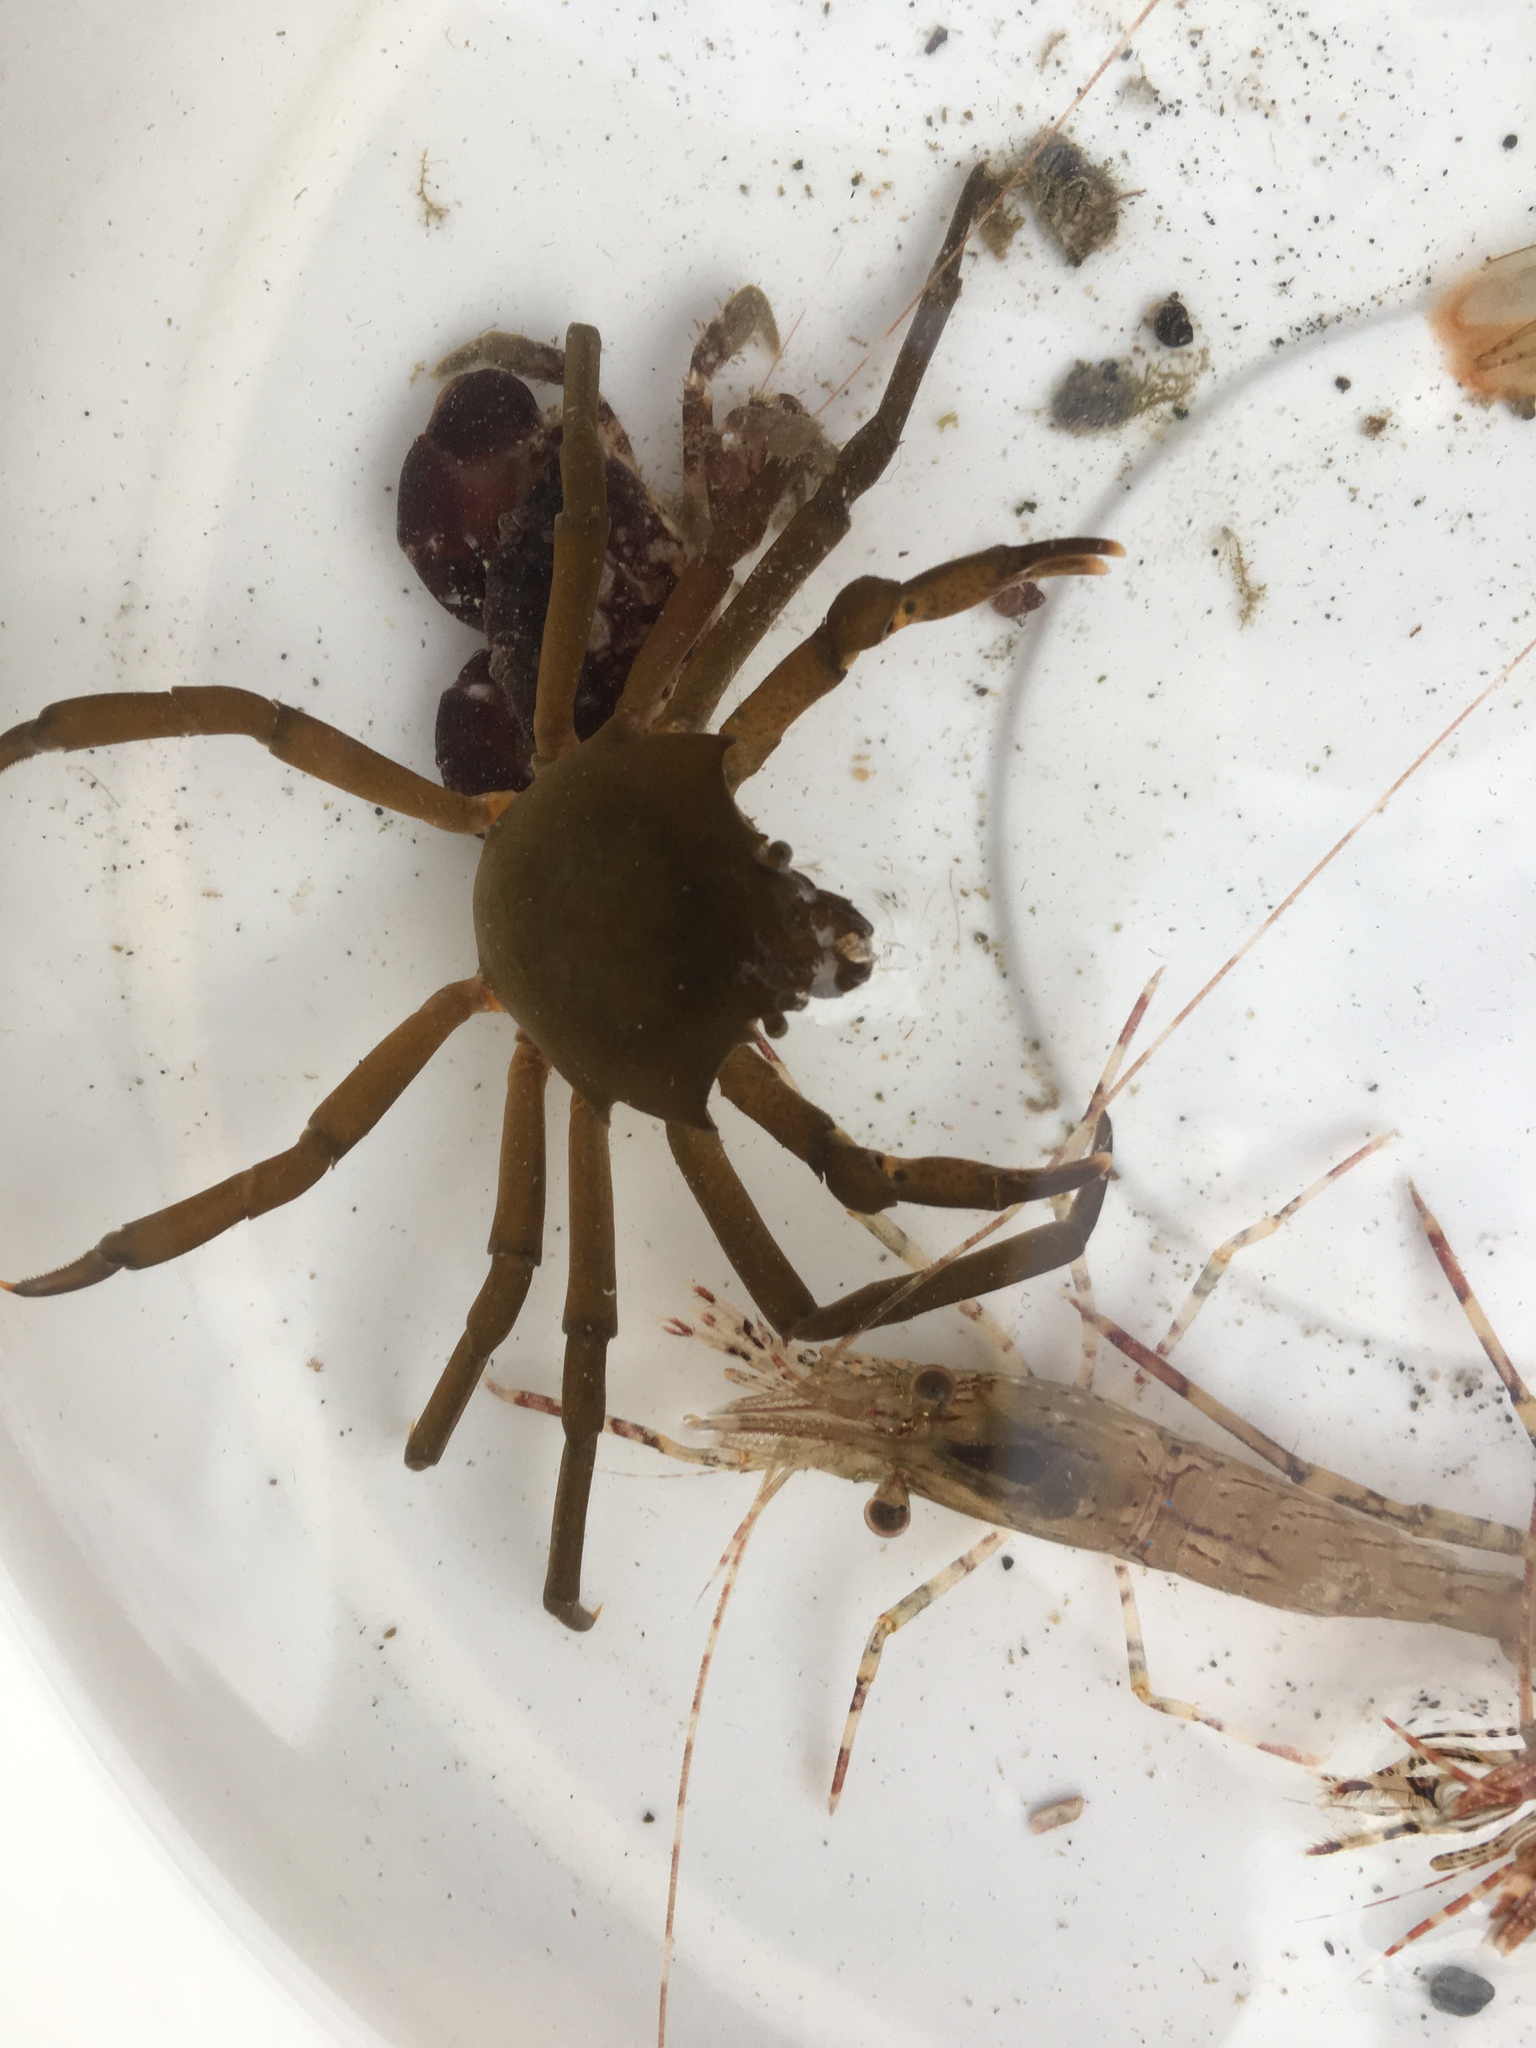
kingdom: Animalia
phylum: Arthropoda
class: Malacostraca
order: Decapoda
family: Epialtidae
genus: Pugettia
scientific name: Pugettia producta
